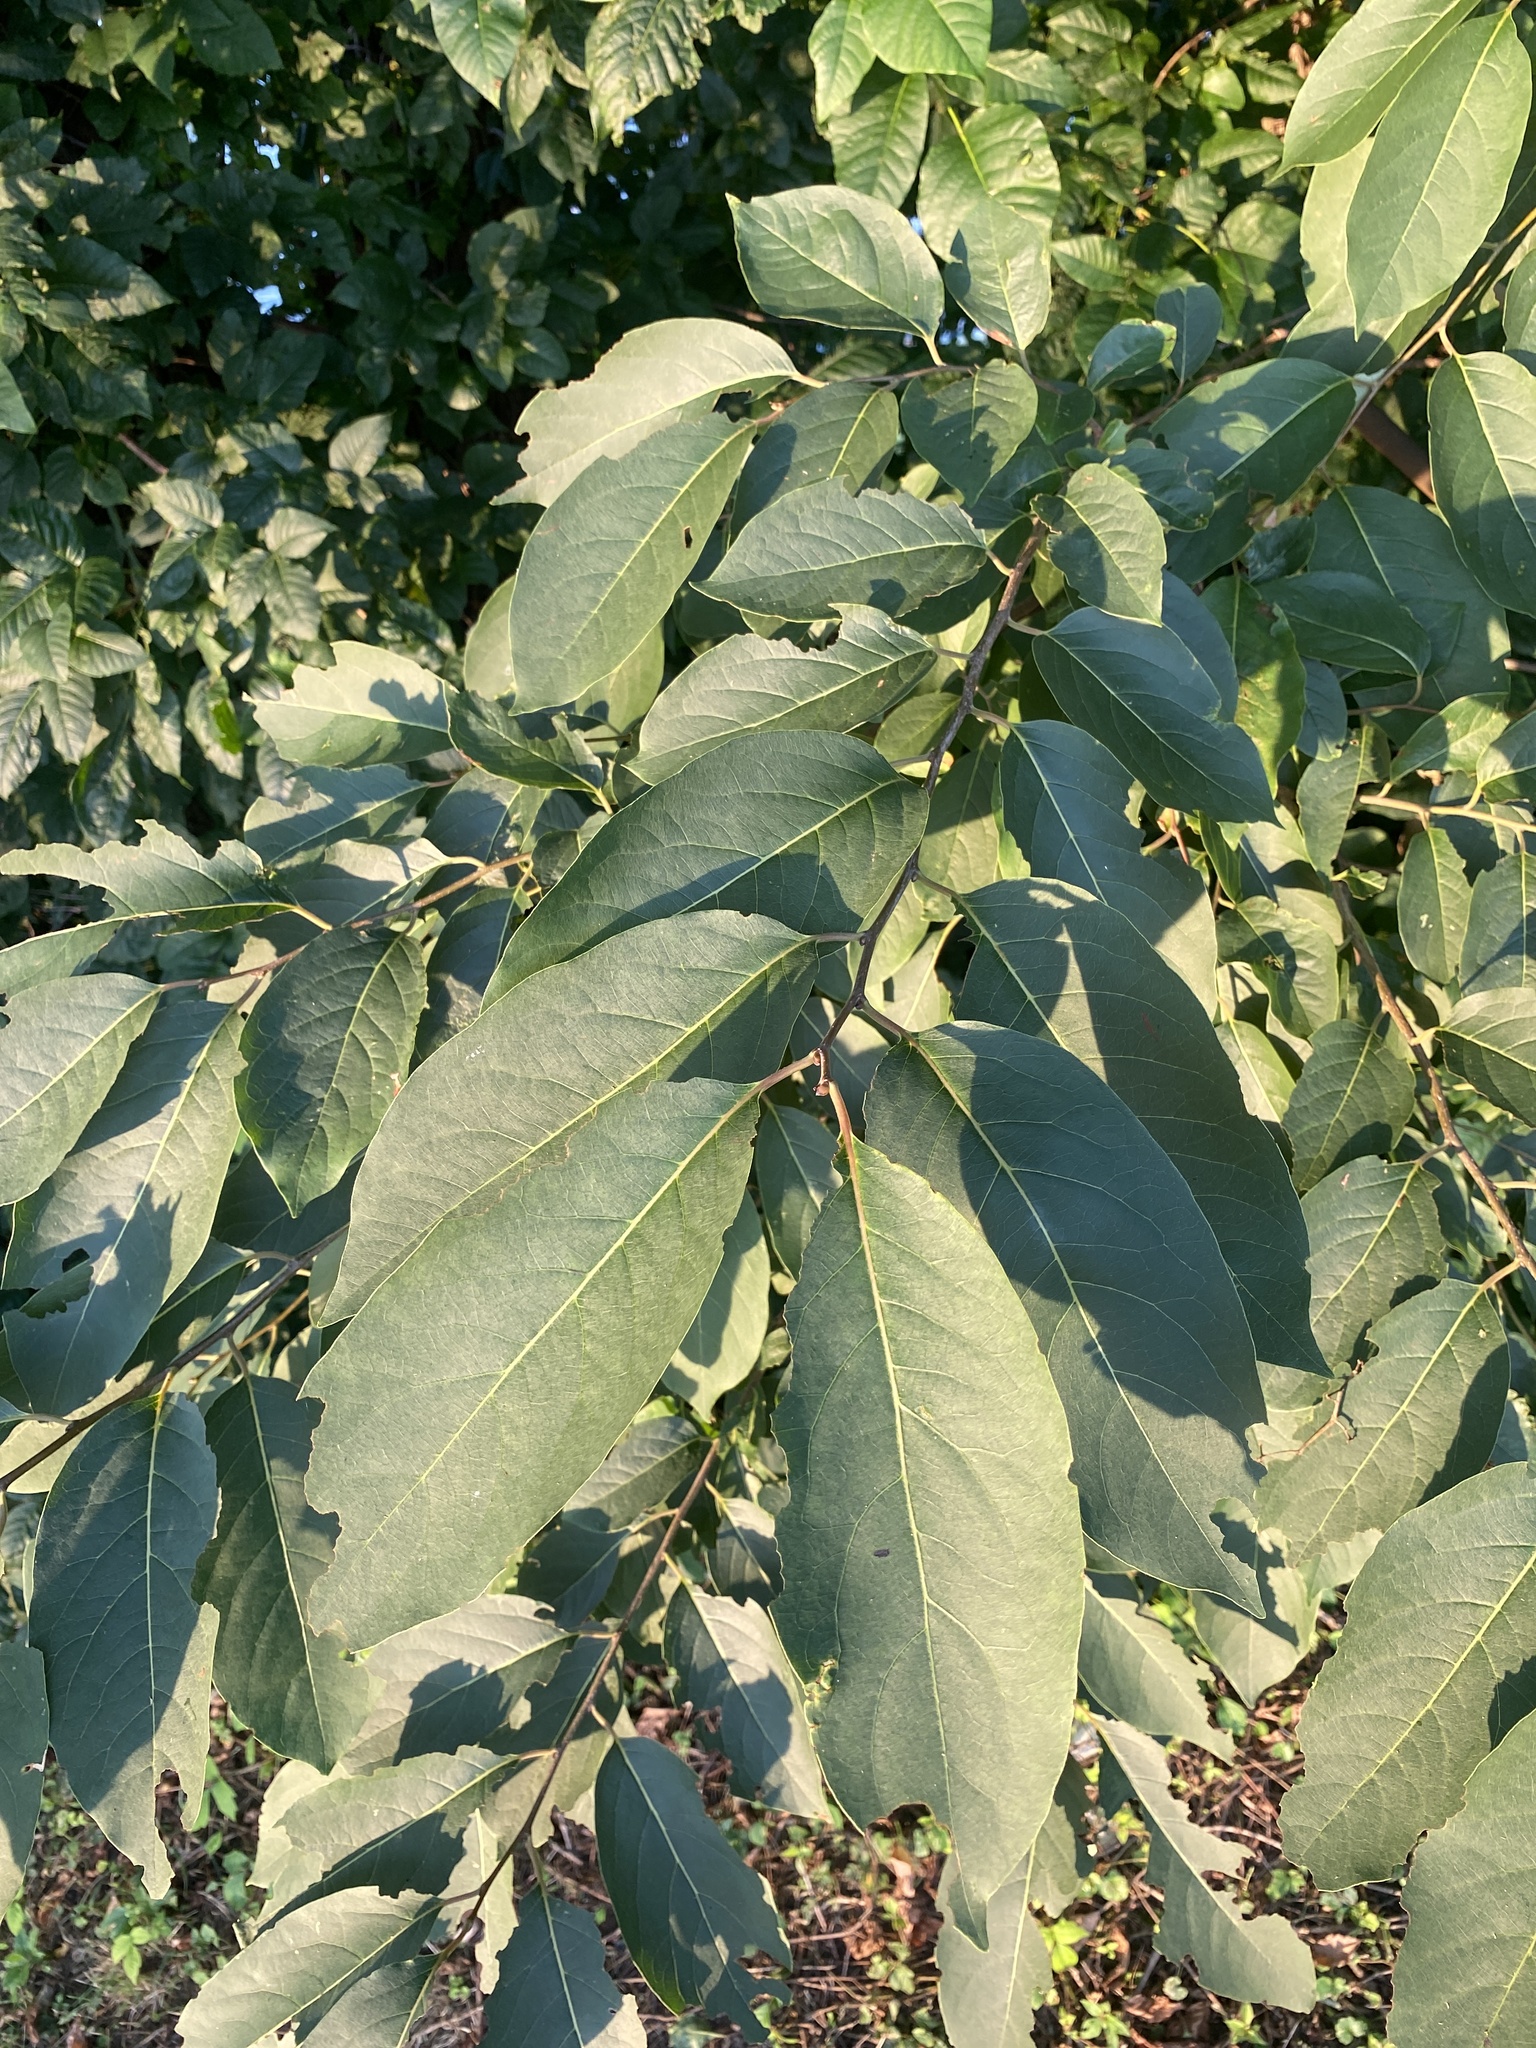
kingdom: Plantae
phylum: Tracheophyta
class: Magnoliopsida
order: Ericales
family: Ebenaceae
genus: Diospyros
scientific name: Diospyros virginiana
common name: Persimmon
